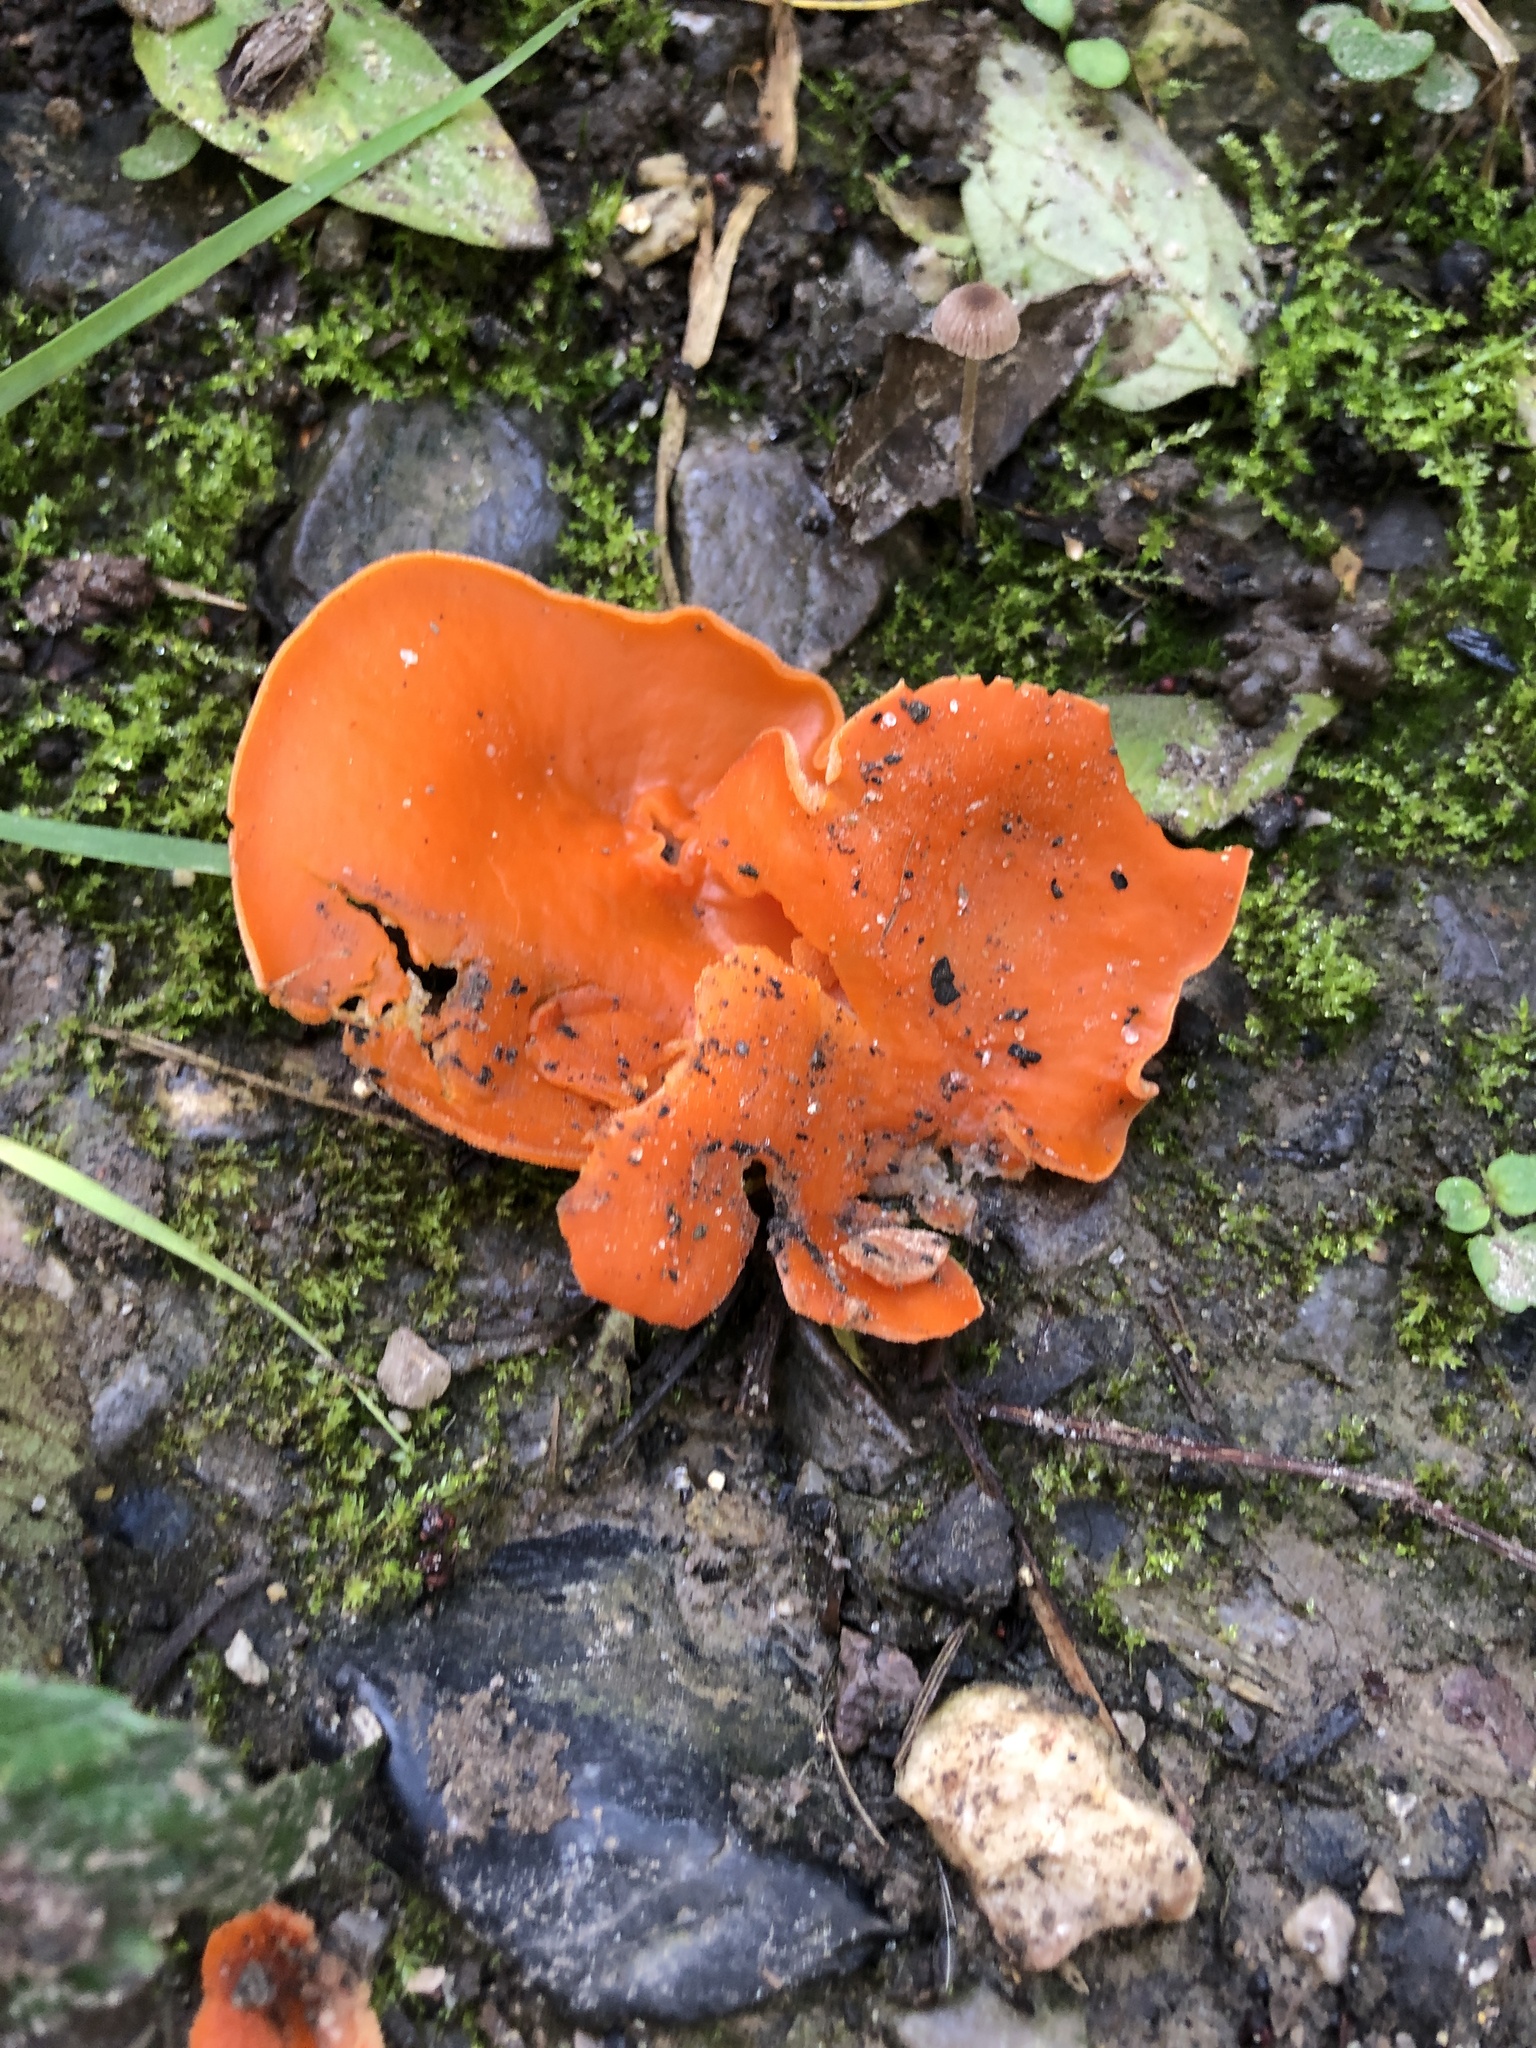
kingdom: Fungi
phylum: Ascomycota
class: Pezizomycetes
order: Pezizales
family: Pyronemataceae
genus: Aleuria
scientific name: Aleuria aurantia
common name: Orange peel fungus
